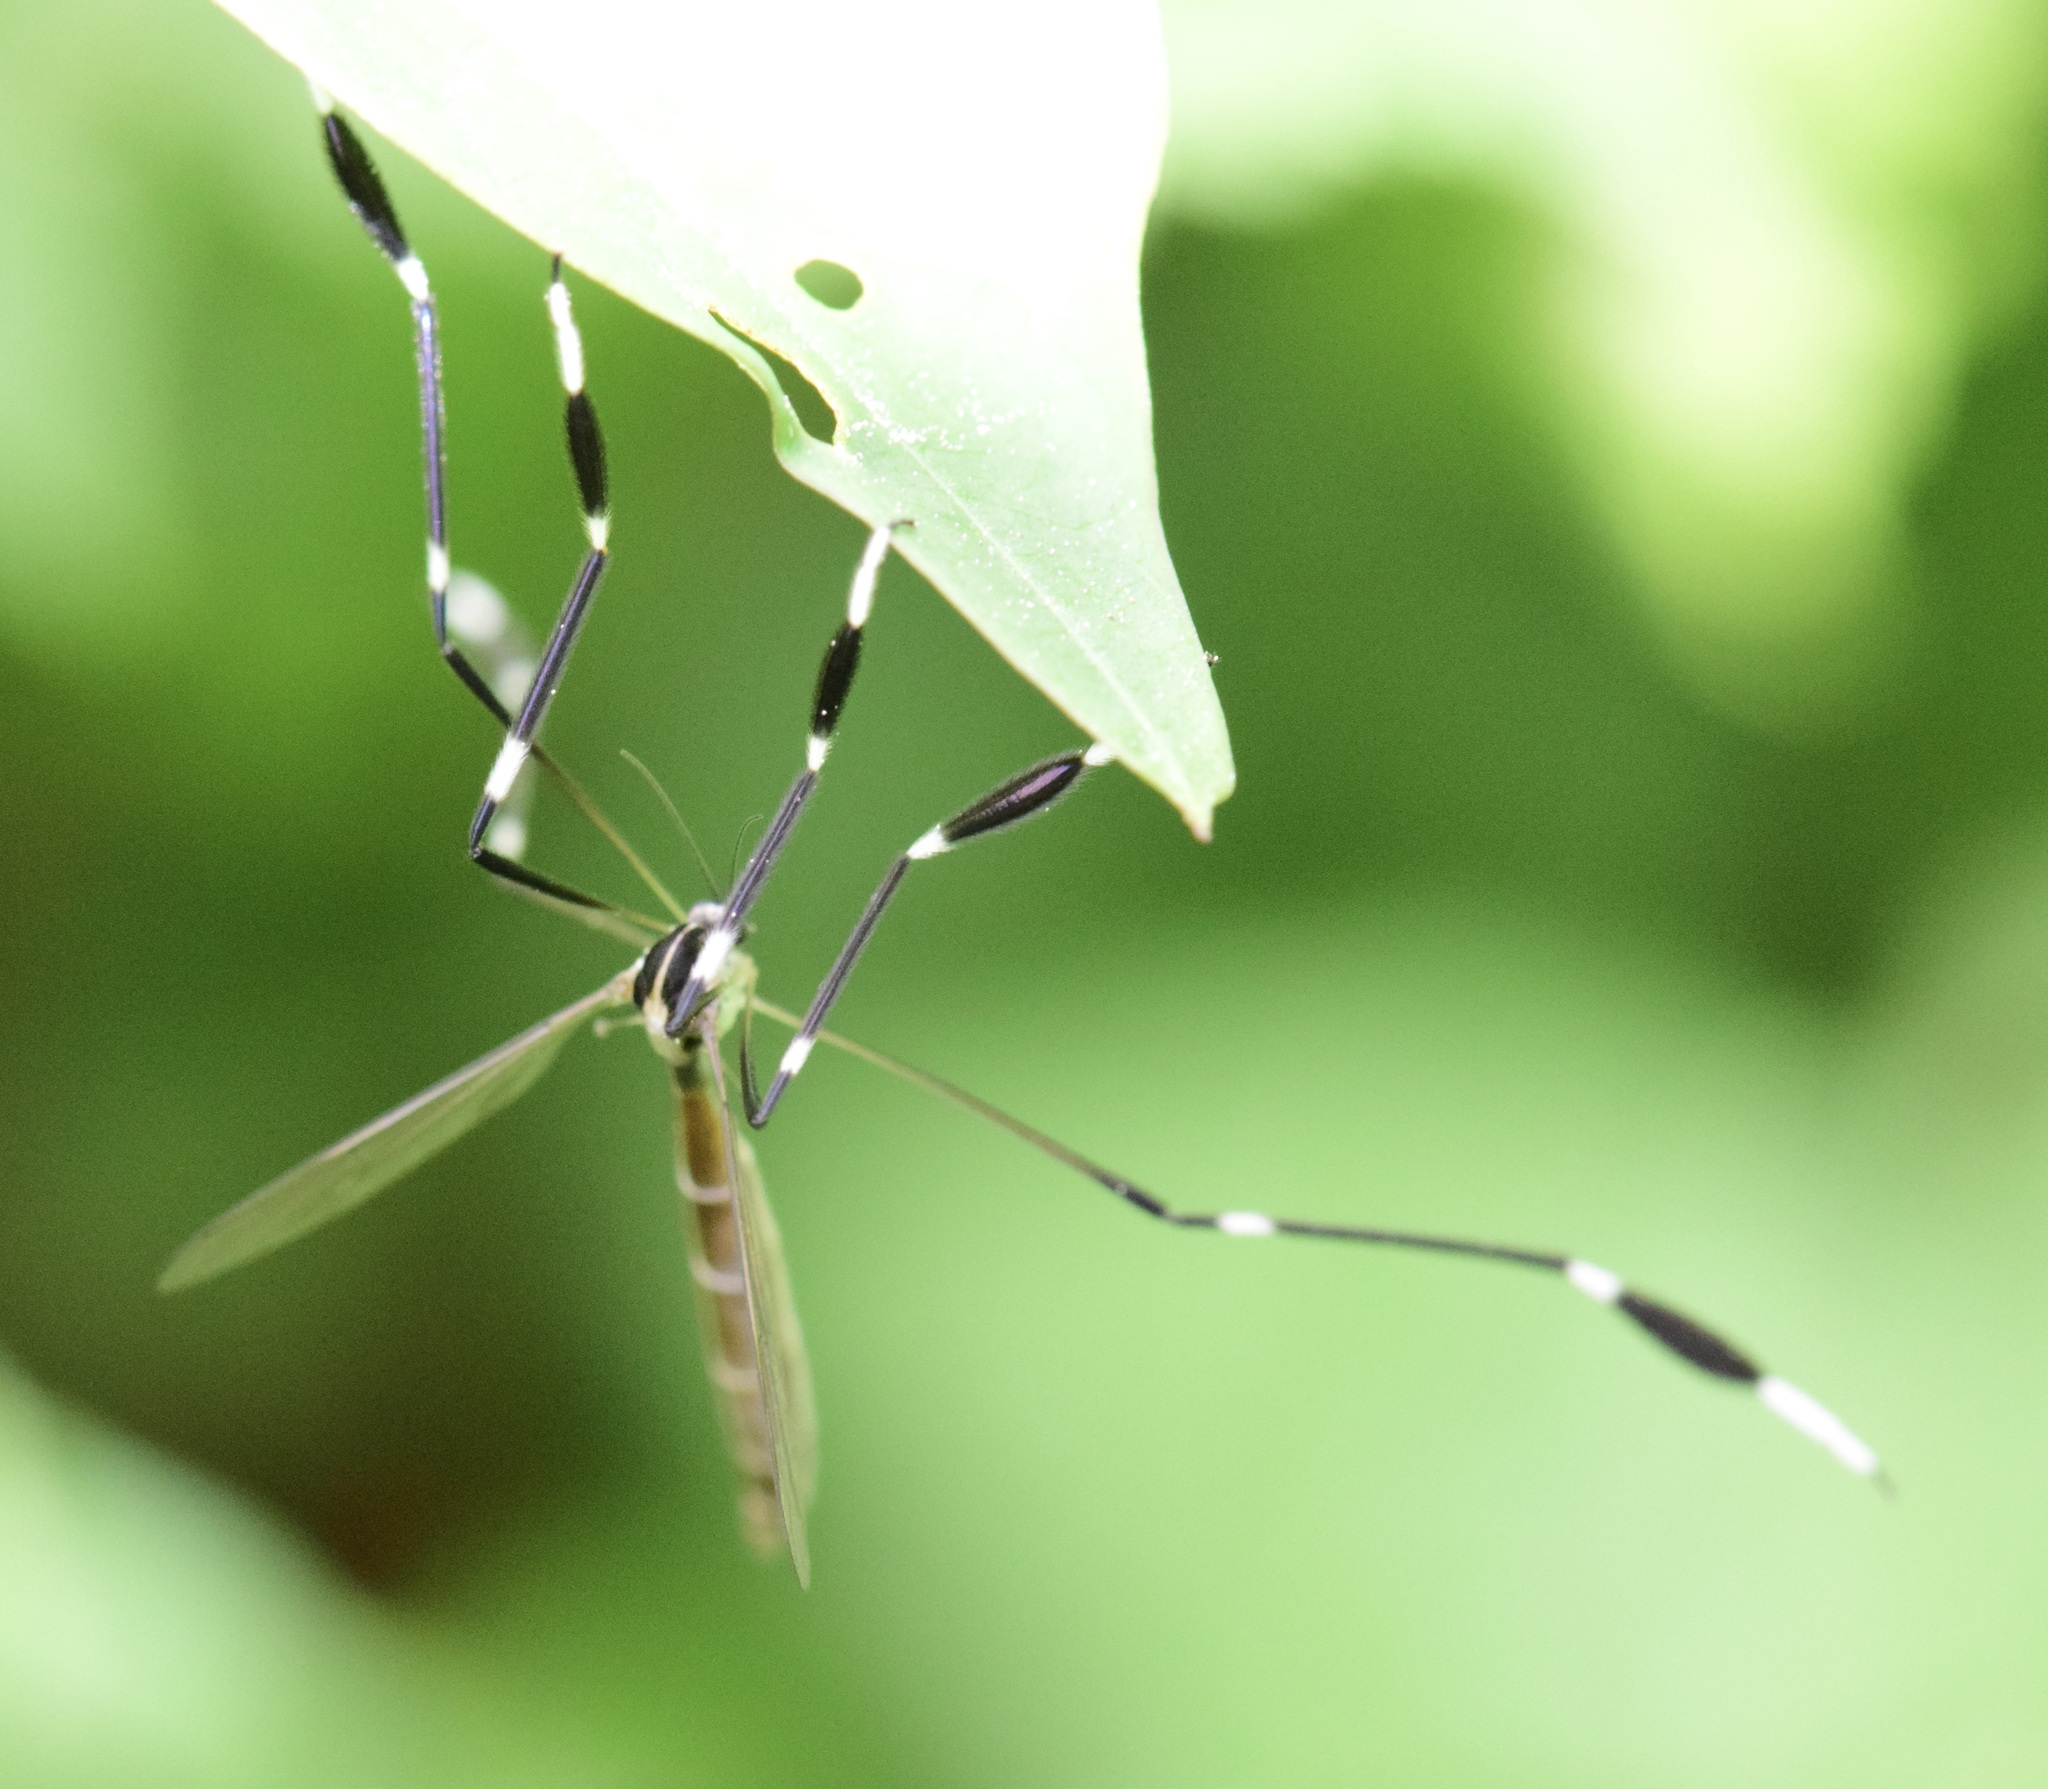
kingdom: Animalia
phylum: Arthropoda
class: Insecta
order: Diptera
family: Ptychopteridae
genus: Bittacomorpha
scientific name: Bittacomorpha clavipes
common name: Eastern phantom crane fly
